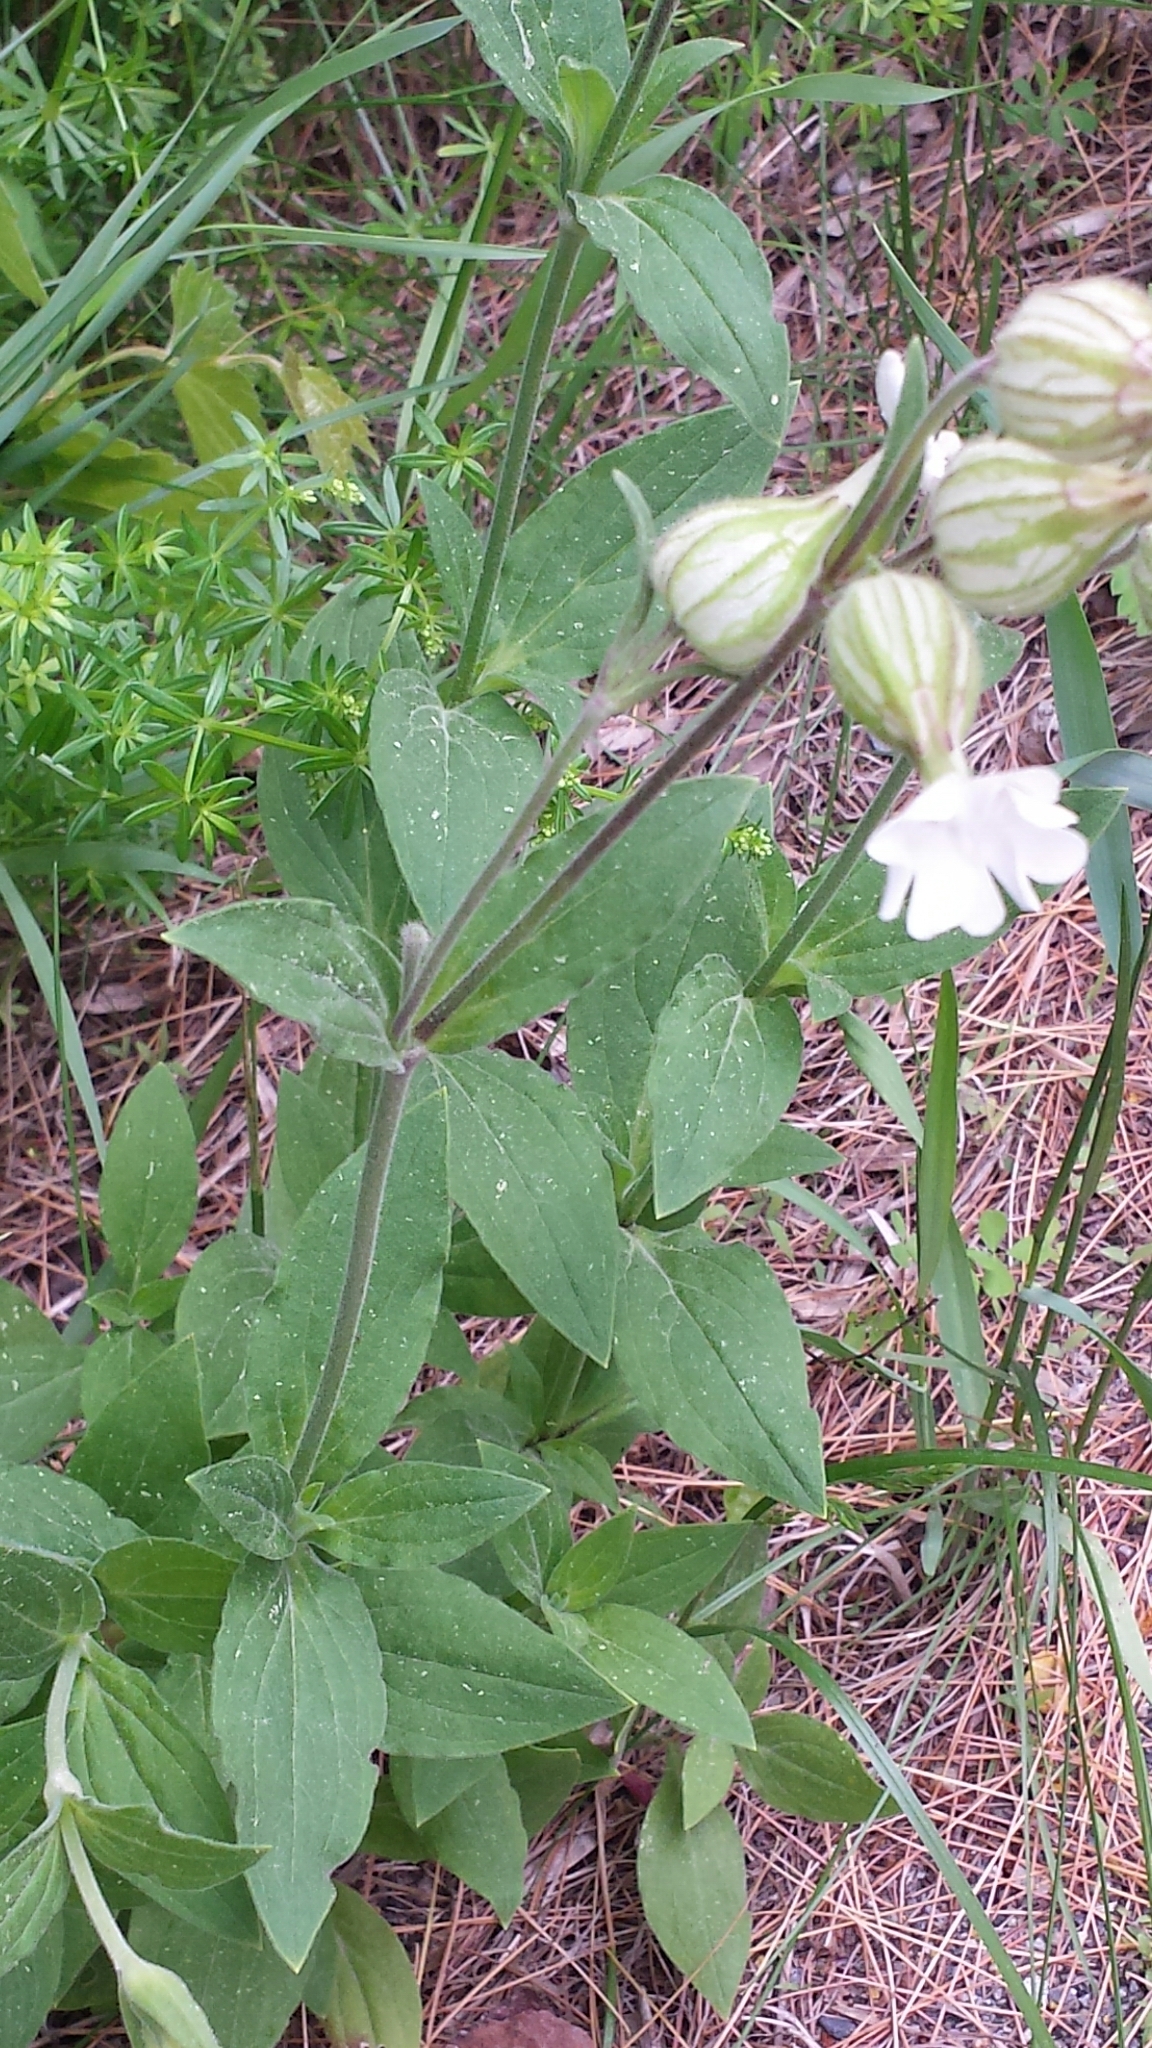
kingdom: Plantae
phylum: Tracheophyta
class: Magnoliopsida
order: Caryophyllales
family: Caryophyllaceae
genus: Silene
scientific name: Silene latifolia
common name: White campion
